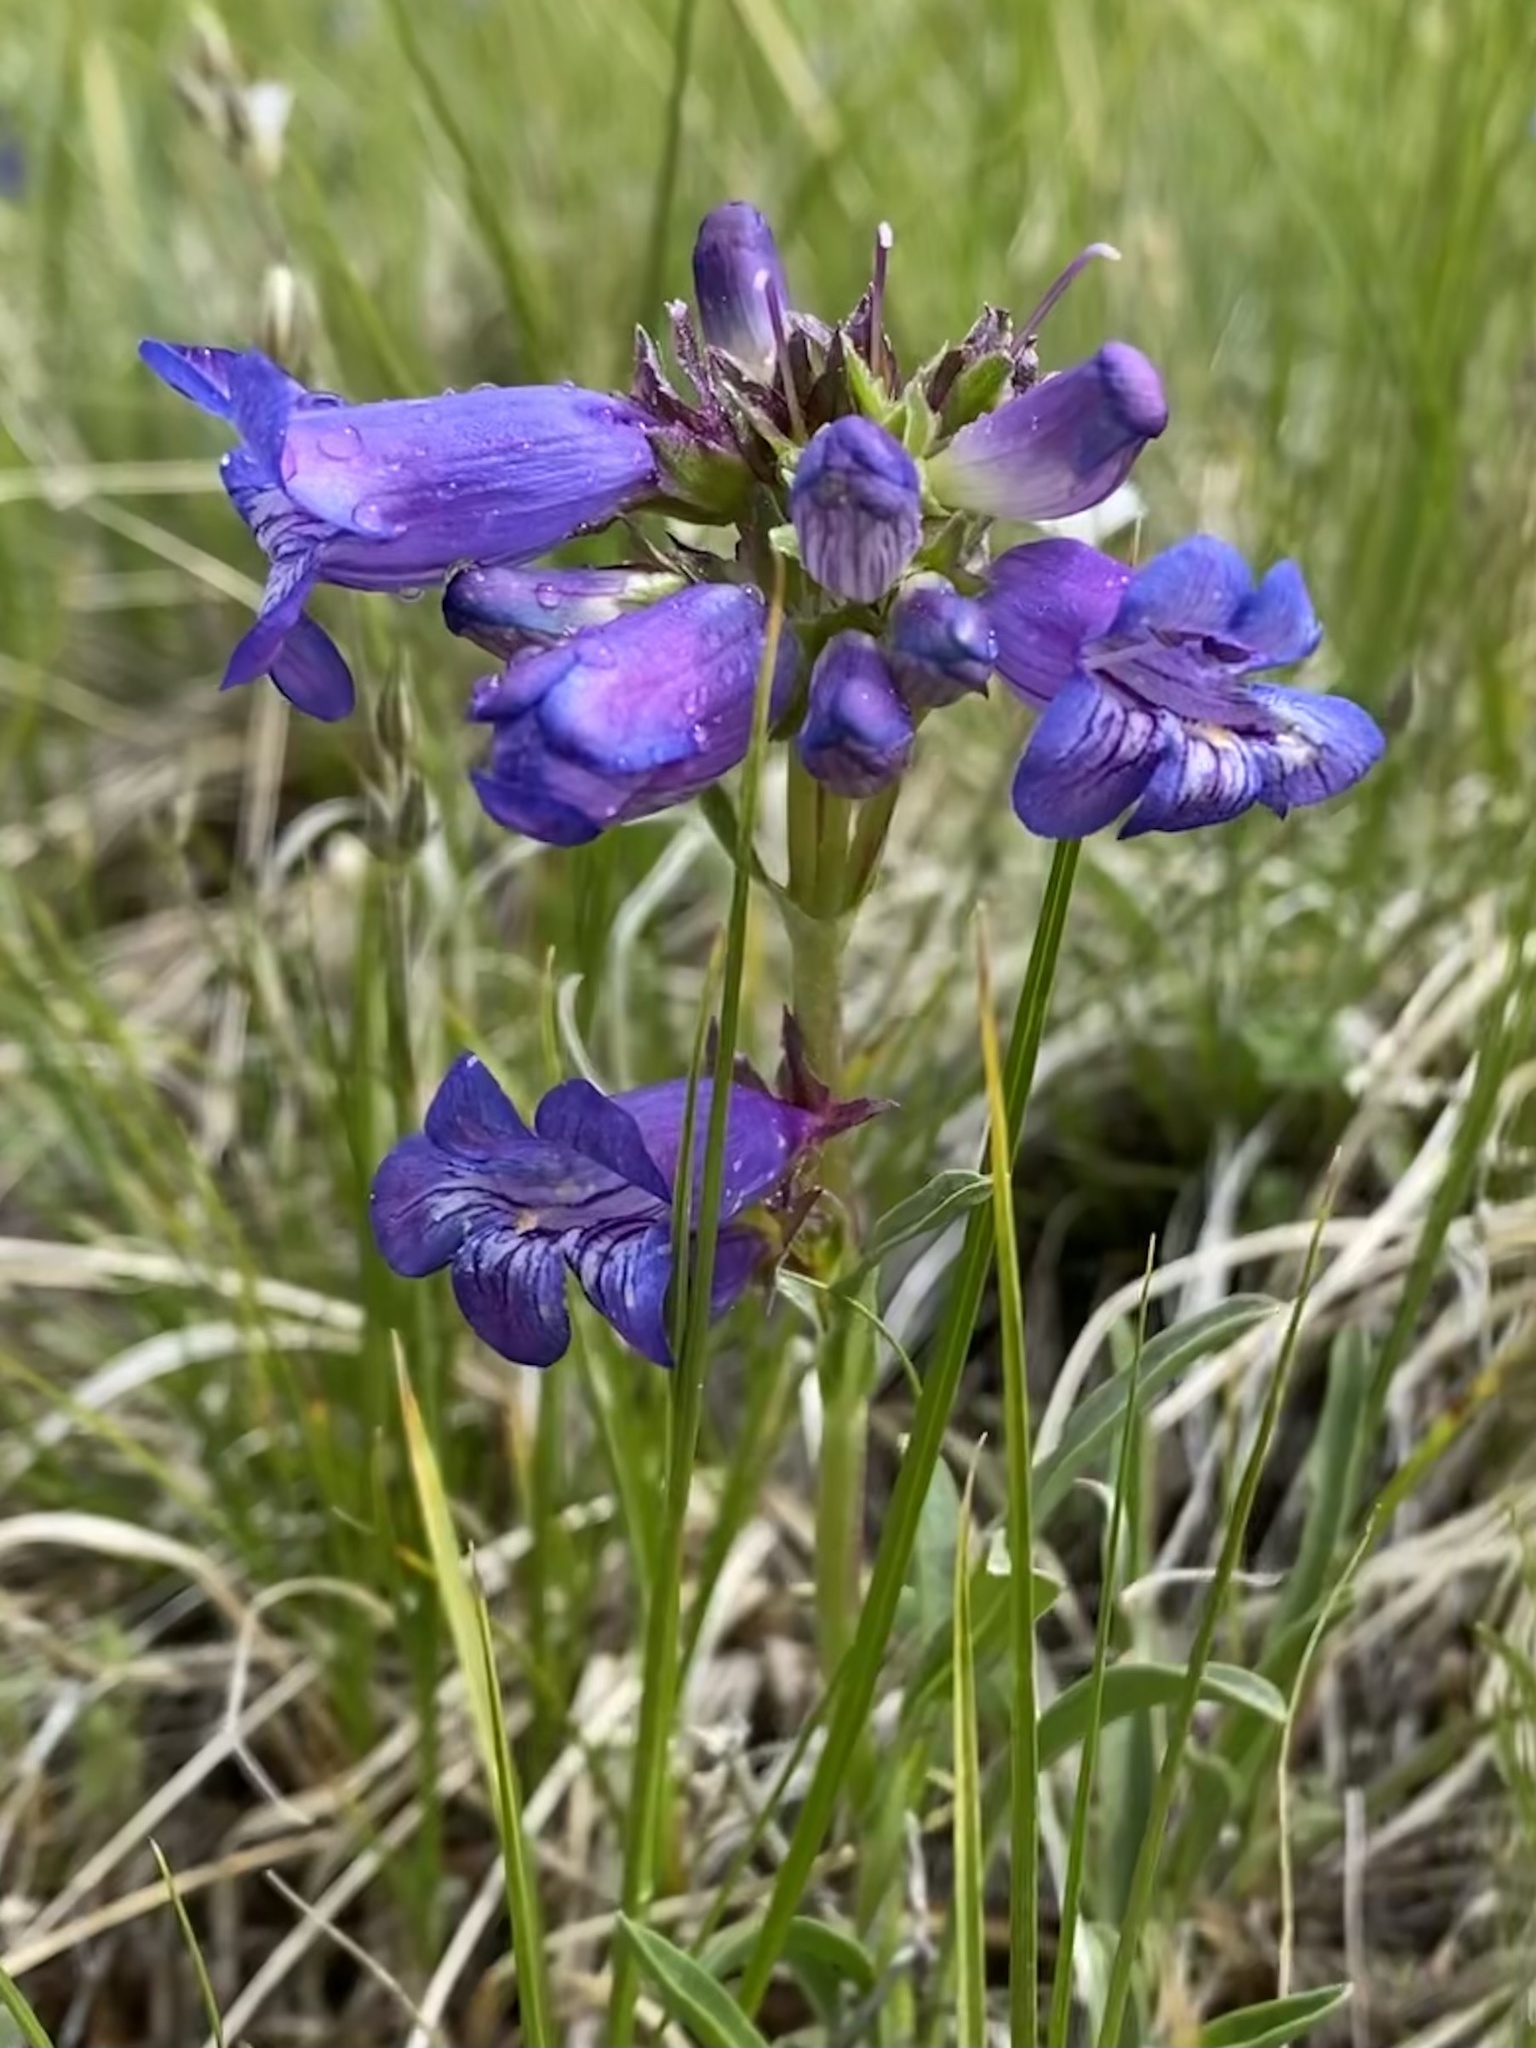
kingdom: Plantae
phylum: Tracheophyta
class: Magnoliopsida
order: Lamiales
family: Plantaginaceae
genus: Penstemon
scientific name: Penstemon hallii
